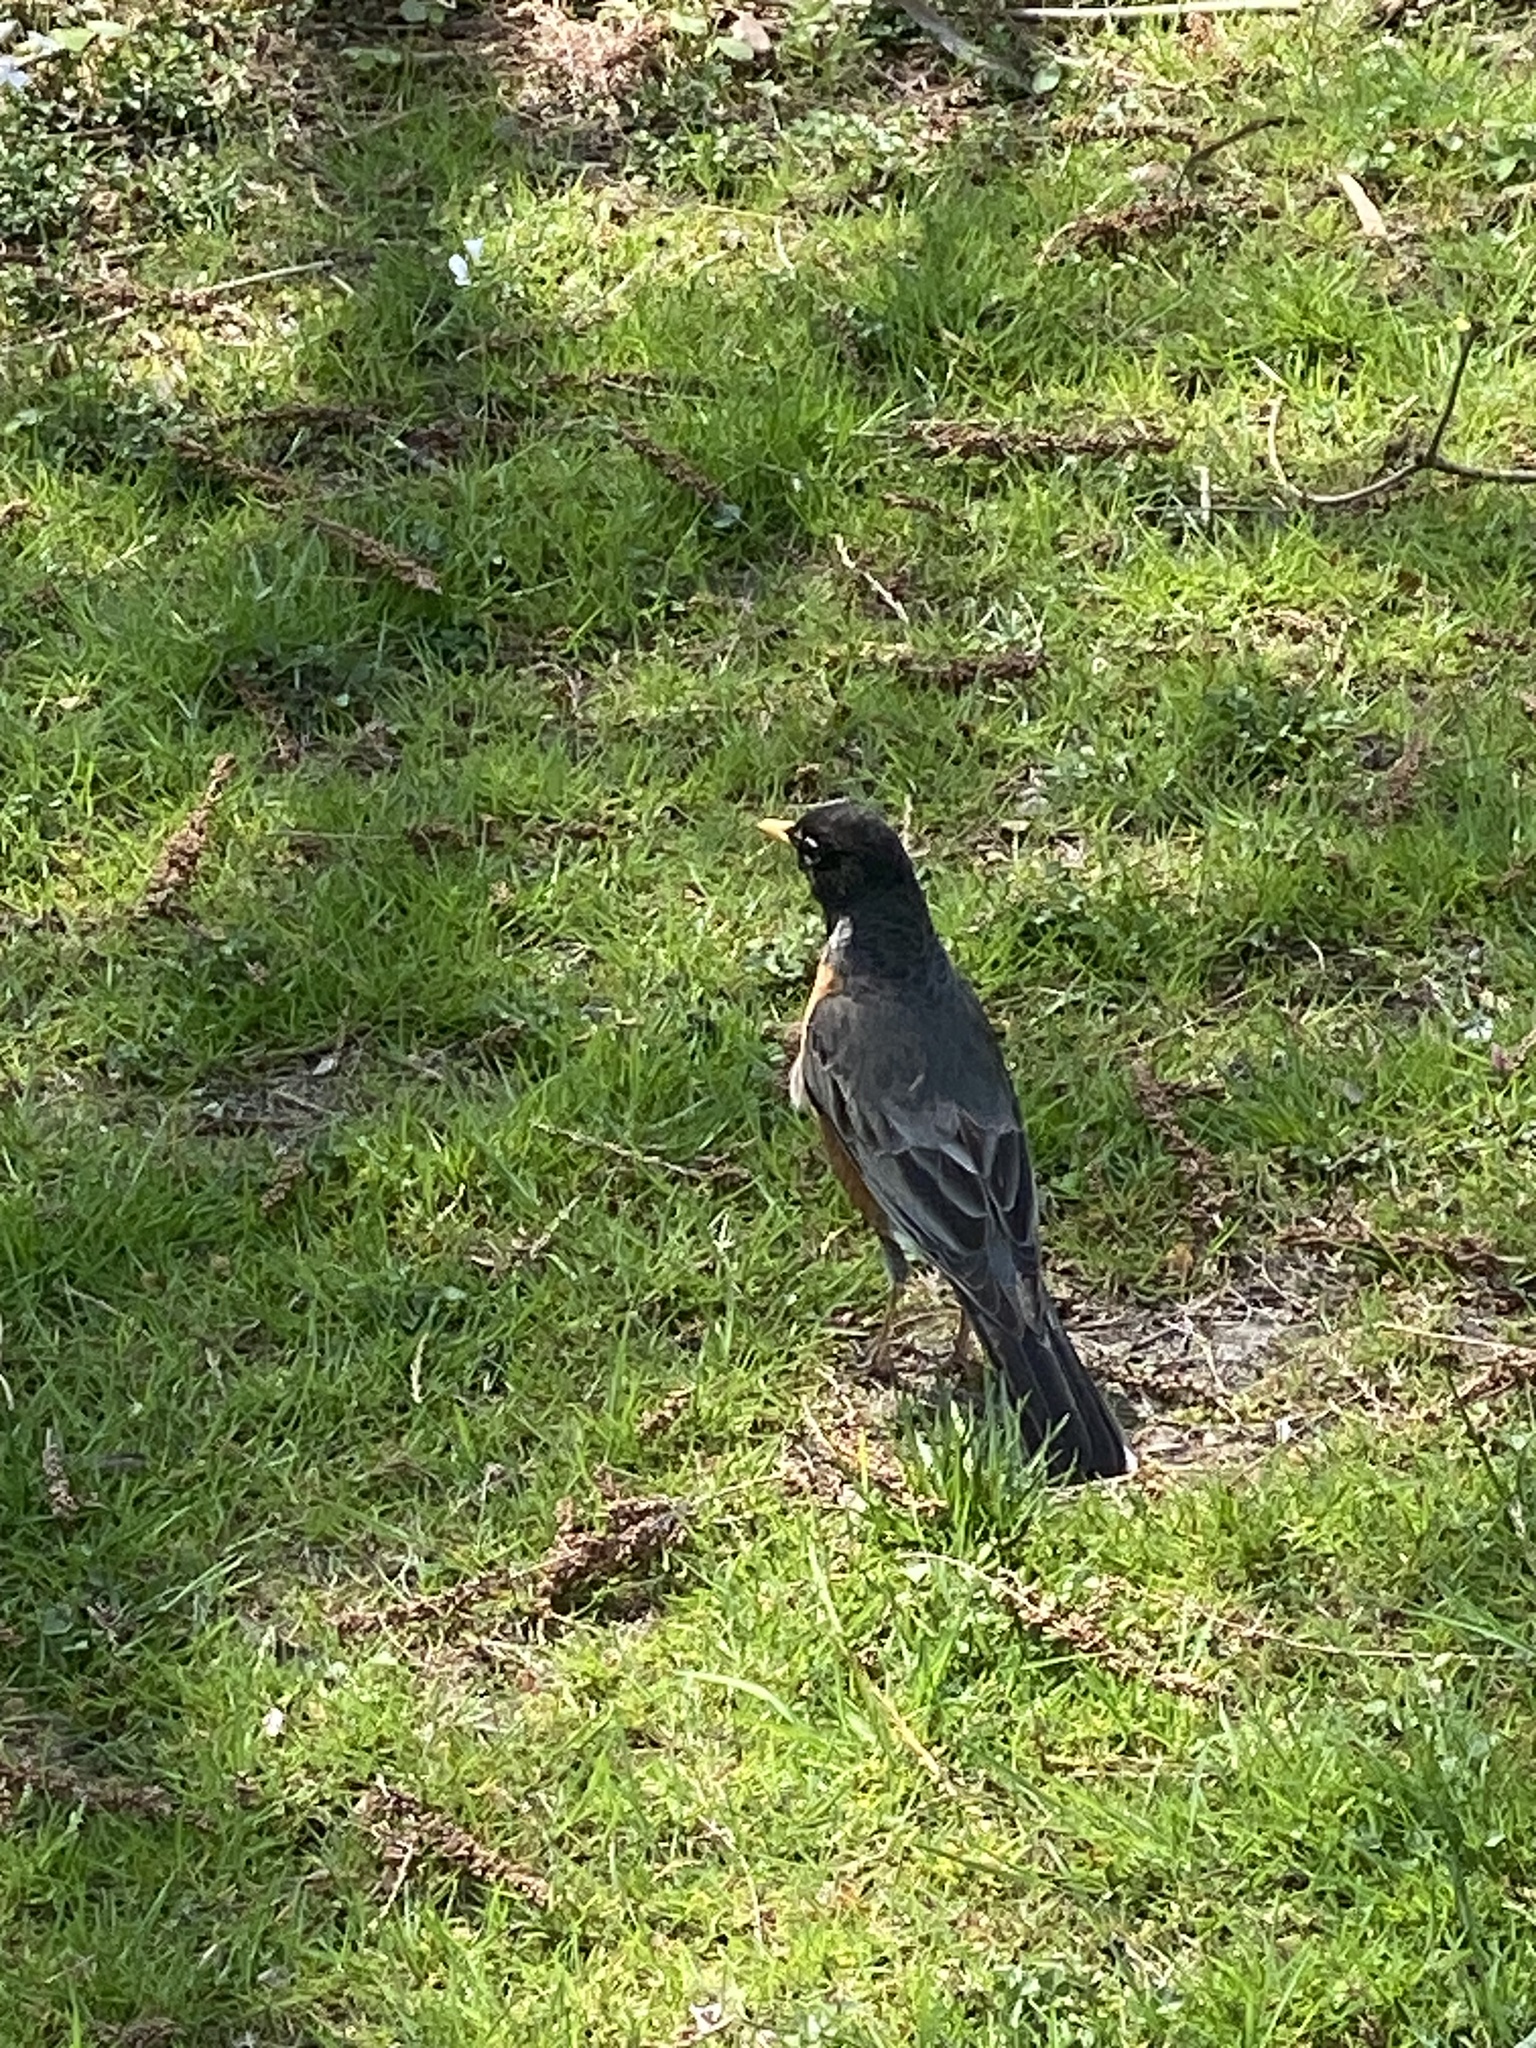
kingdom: Animalia
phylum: Chordata
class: Aves
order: Passeriformes
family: Turdidae
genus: Turdus
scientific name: Turdus migratorius
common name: American robin
